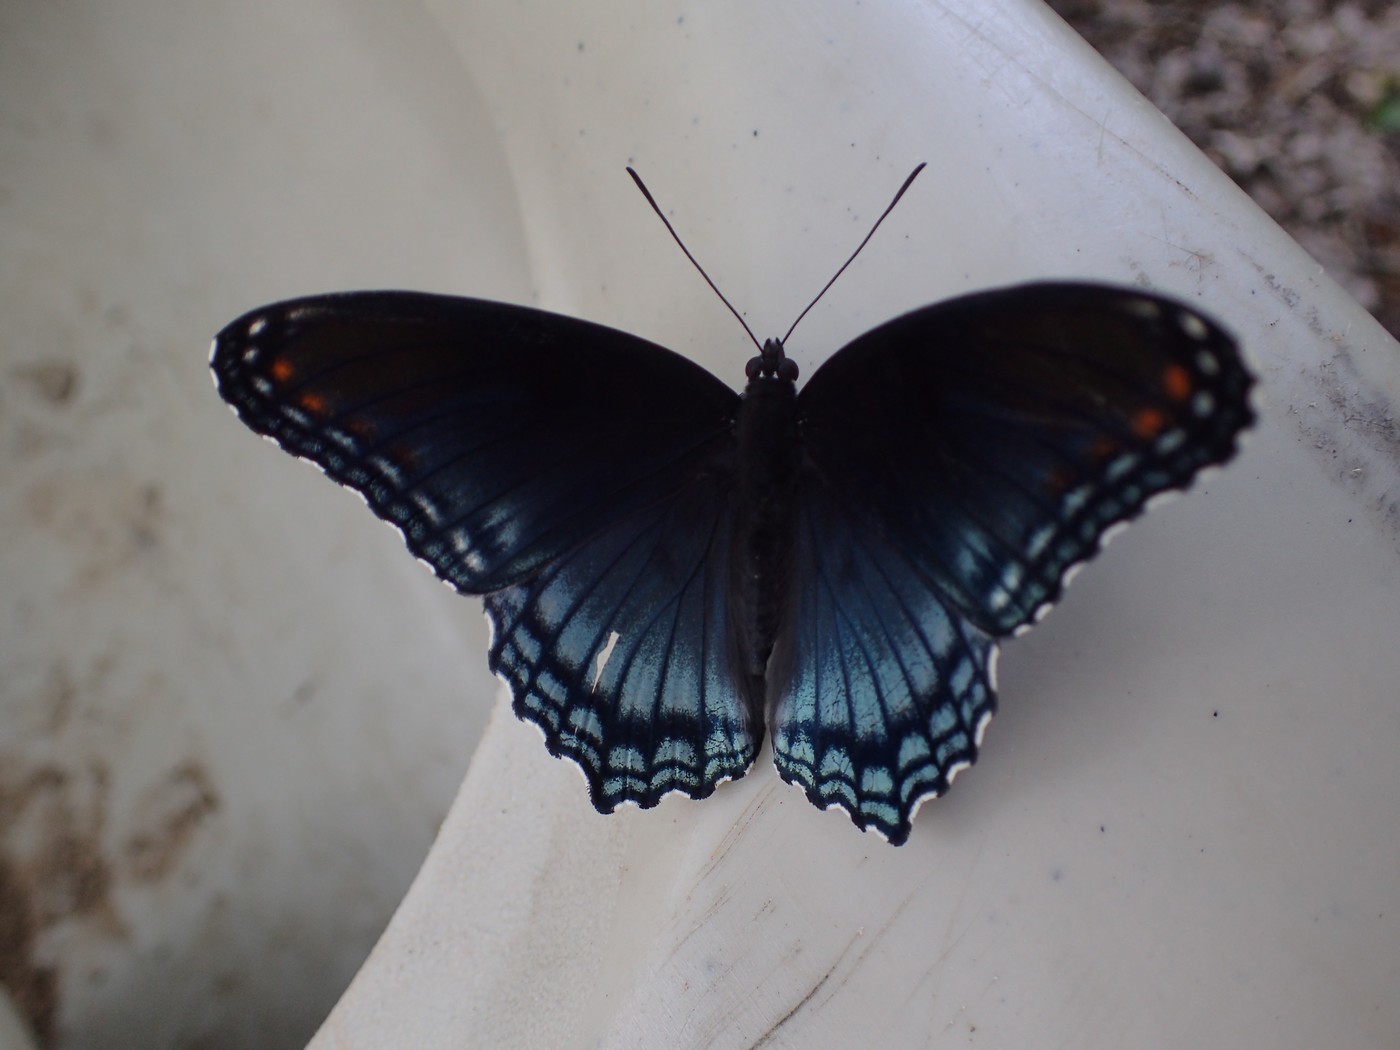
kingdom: Animalia
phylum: Arthropoda
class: Insecta
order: Lepidoptera
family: Nymphalidae
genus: Limenitis
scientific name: Limenitis astyanax
